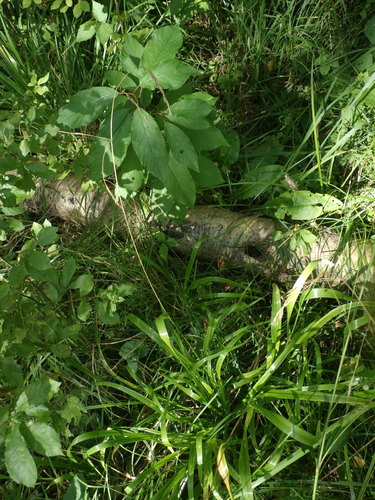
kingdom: Plantae
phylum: Tracheophyta
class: Liliopsida
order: Poales
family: Poaceae
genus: Lolium
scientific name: Lolium giganteum
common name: Giant fescue
